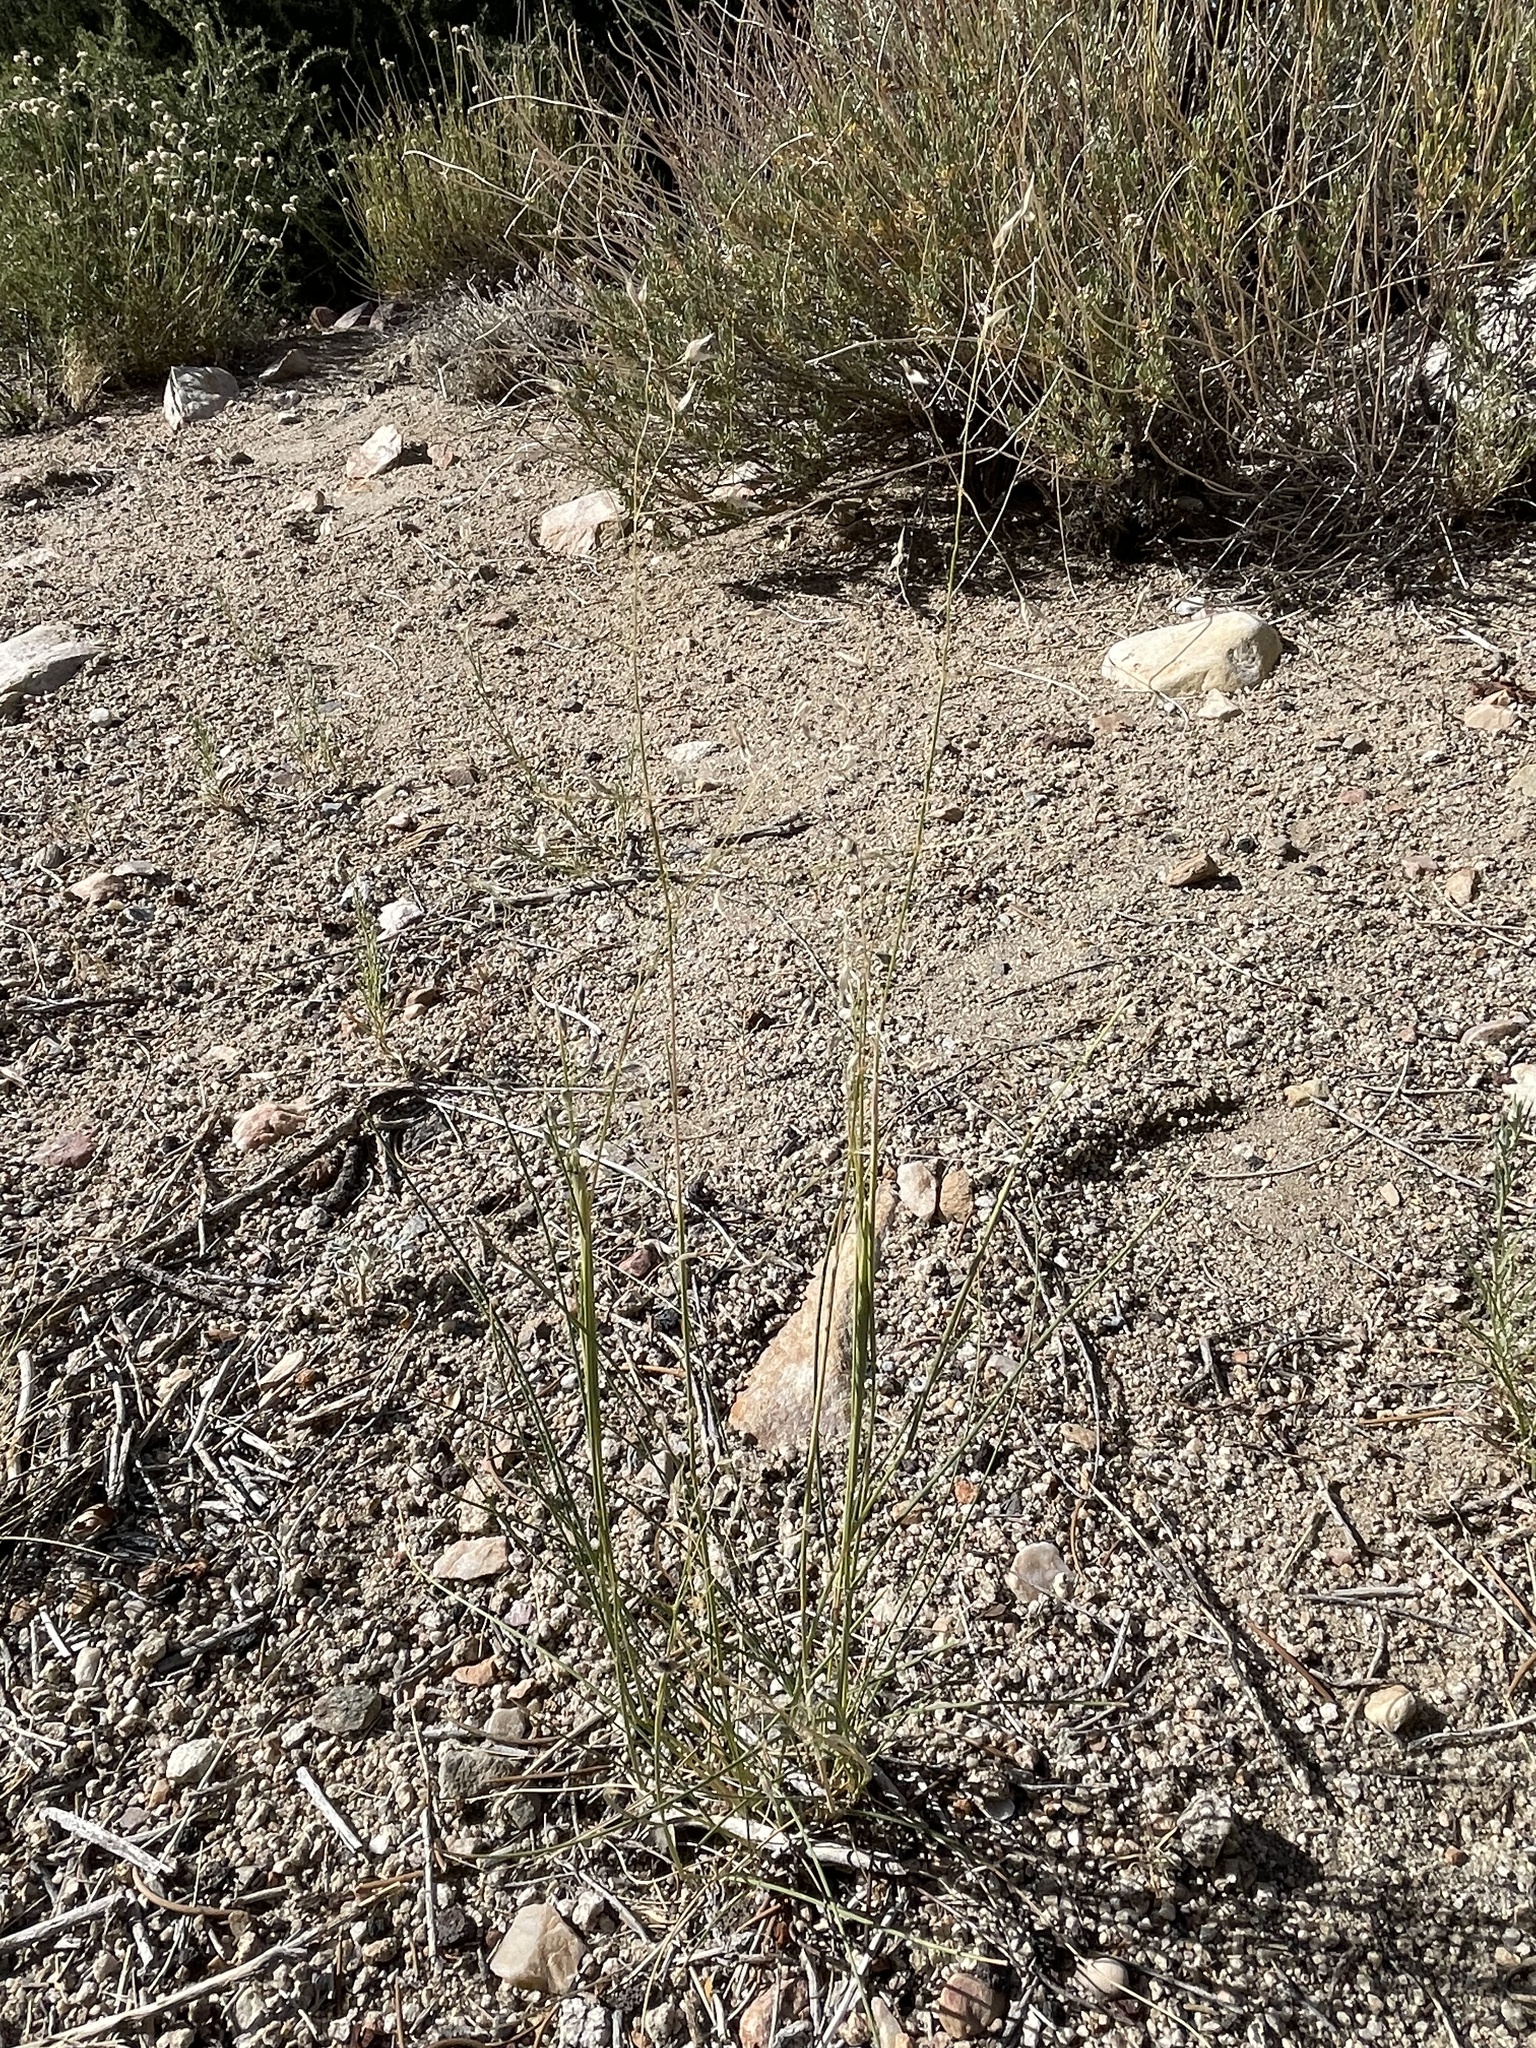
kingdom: Plantae
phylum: Tracheophyta
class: Liliopsida
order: Poales
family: Poaceae
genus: Eriocoma
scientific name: Eriocoma hymenoides
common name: Indian mountain ricegrass
